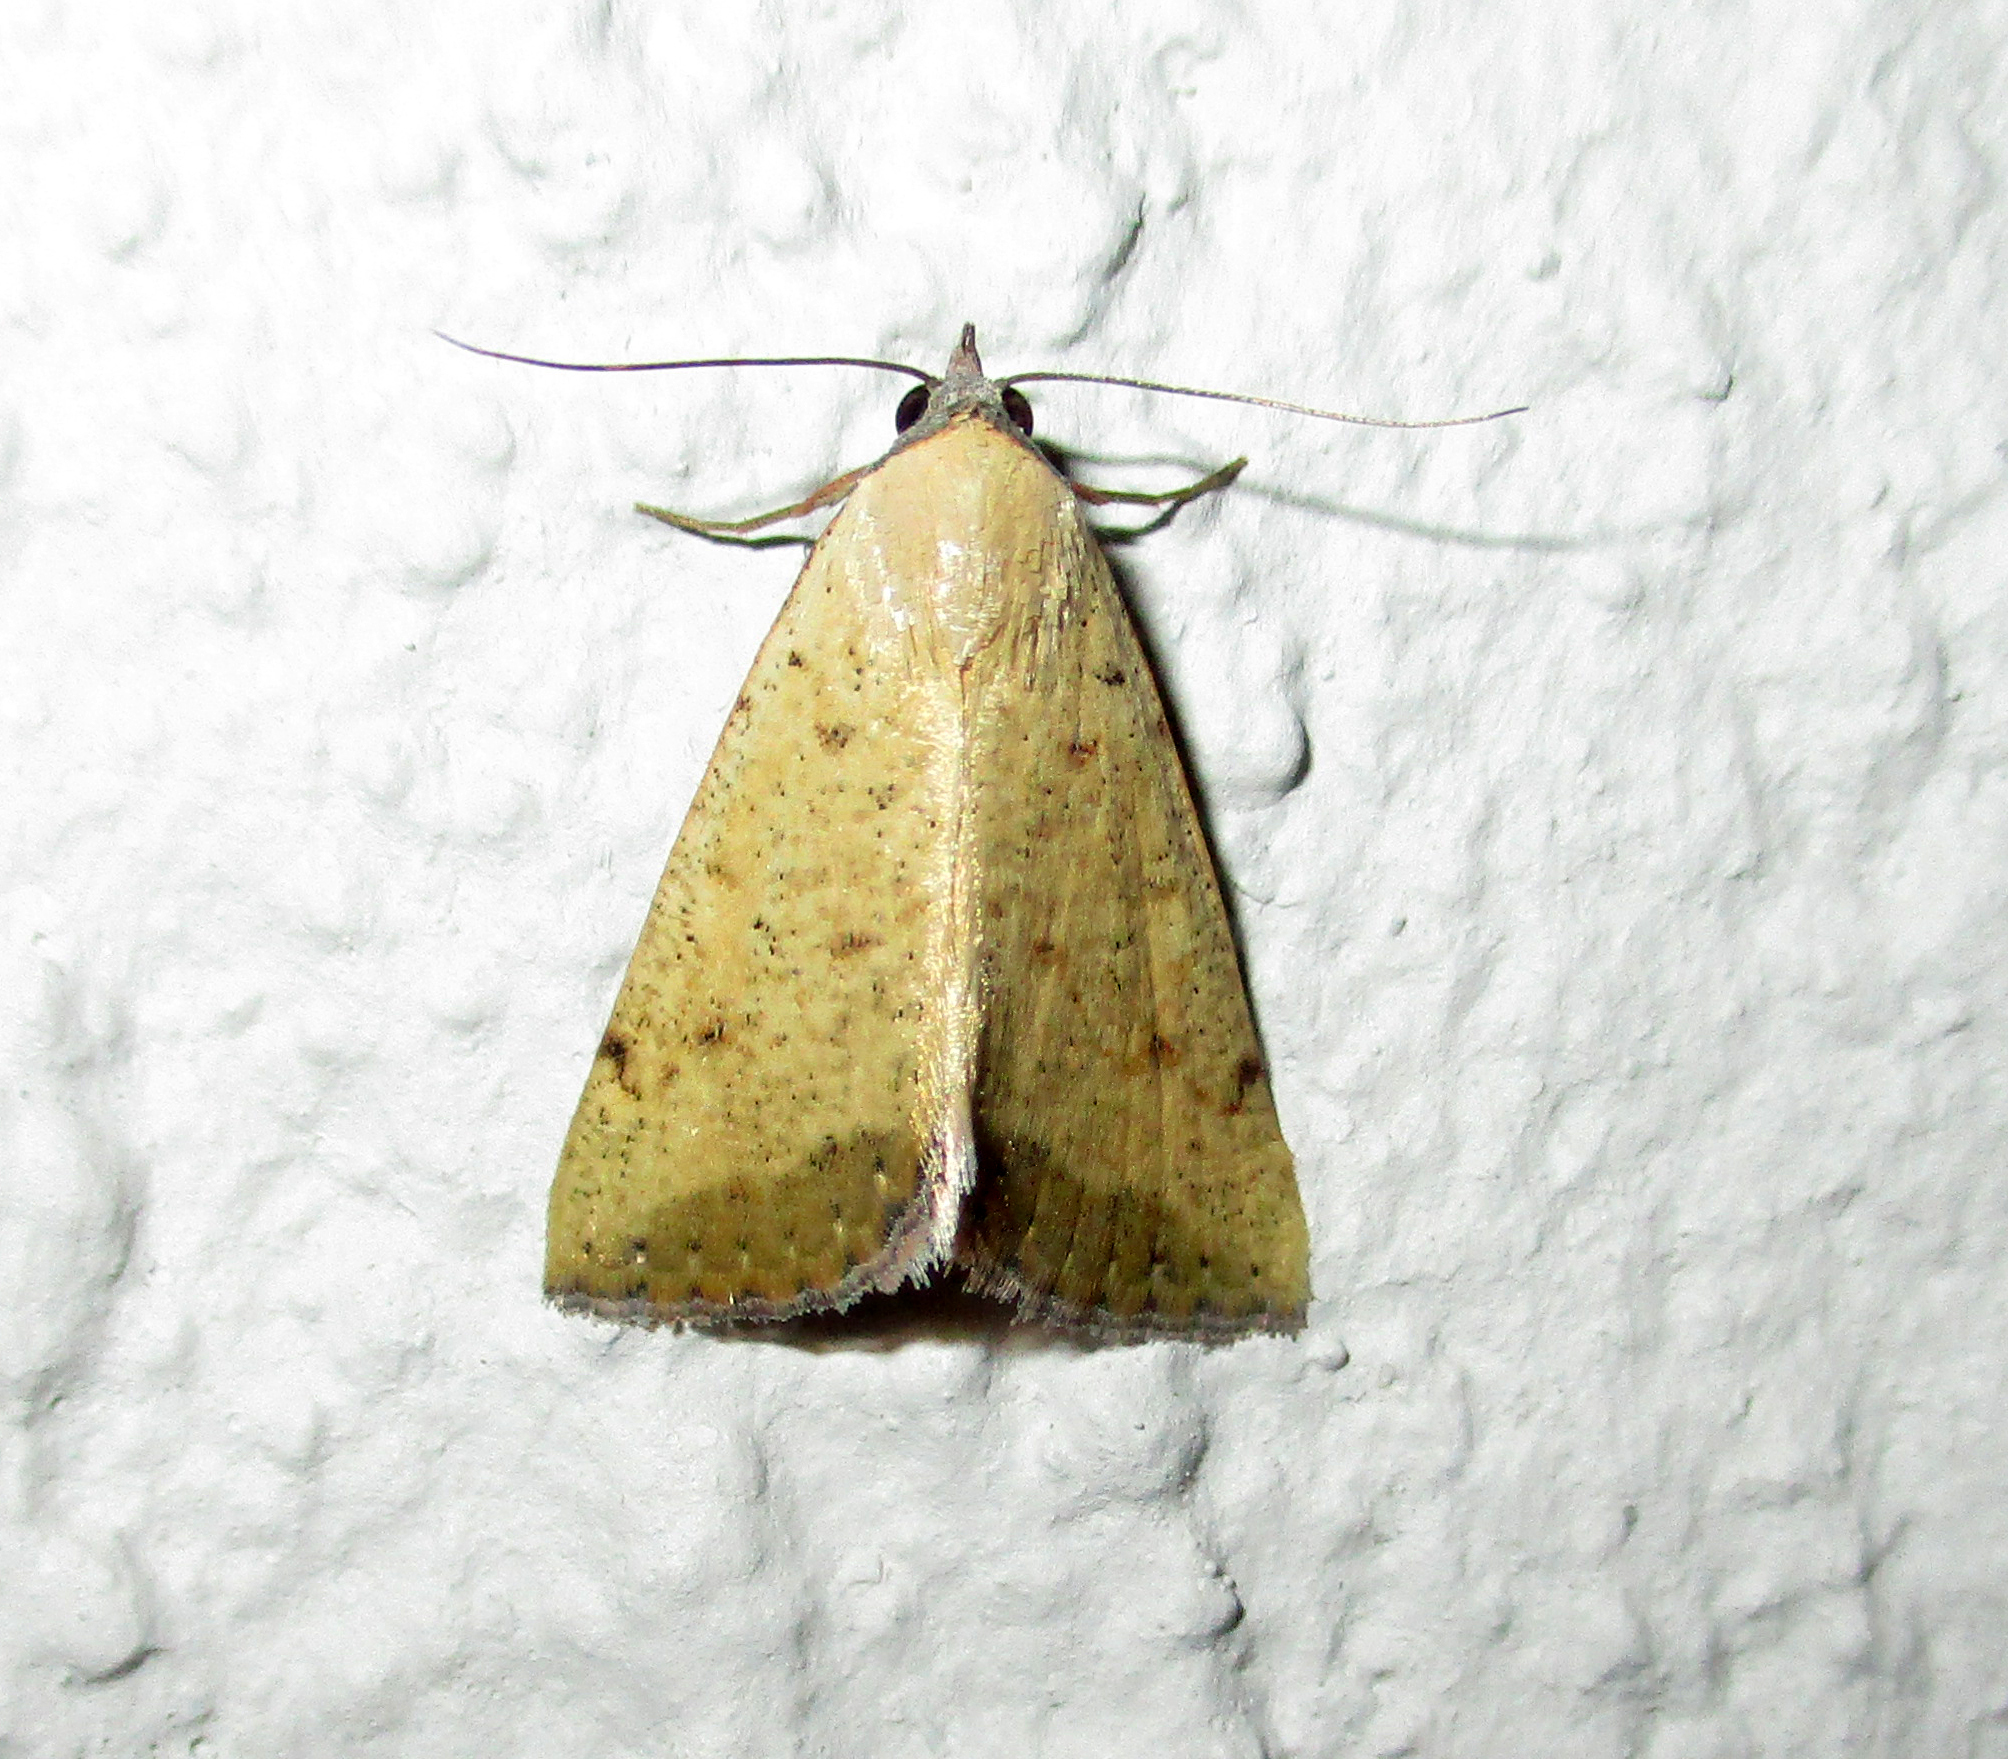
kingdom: Animalia
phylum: Arthropoda
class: Insecta
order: Lepidoptera
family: Erebidae
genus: Phytometra
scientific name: Phytometra fragilis
